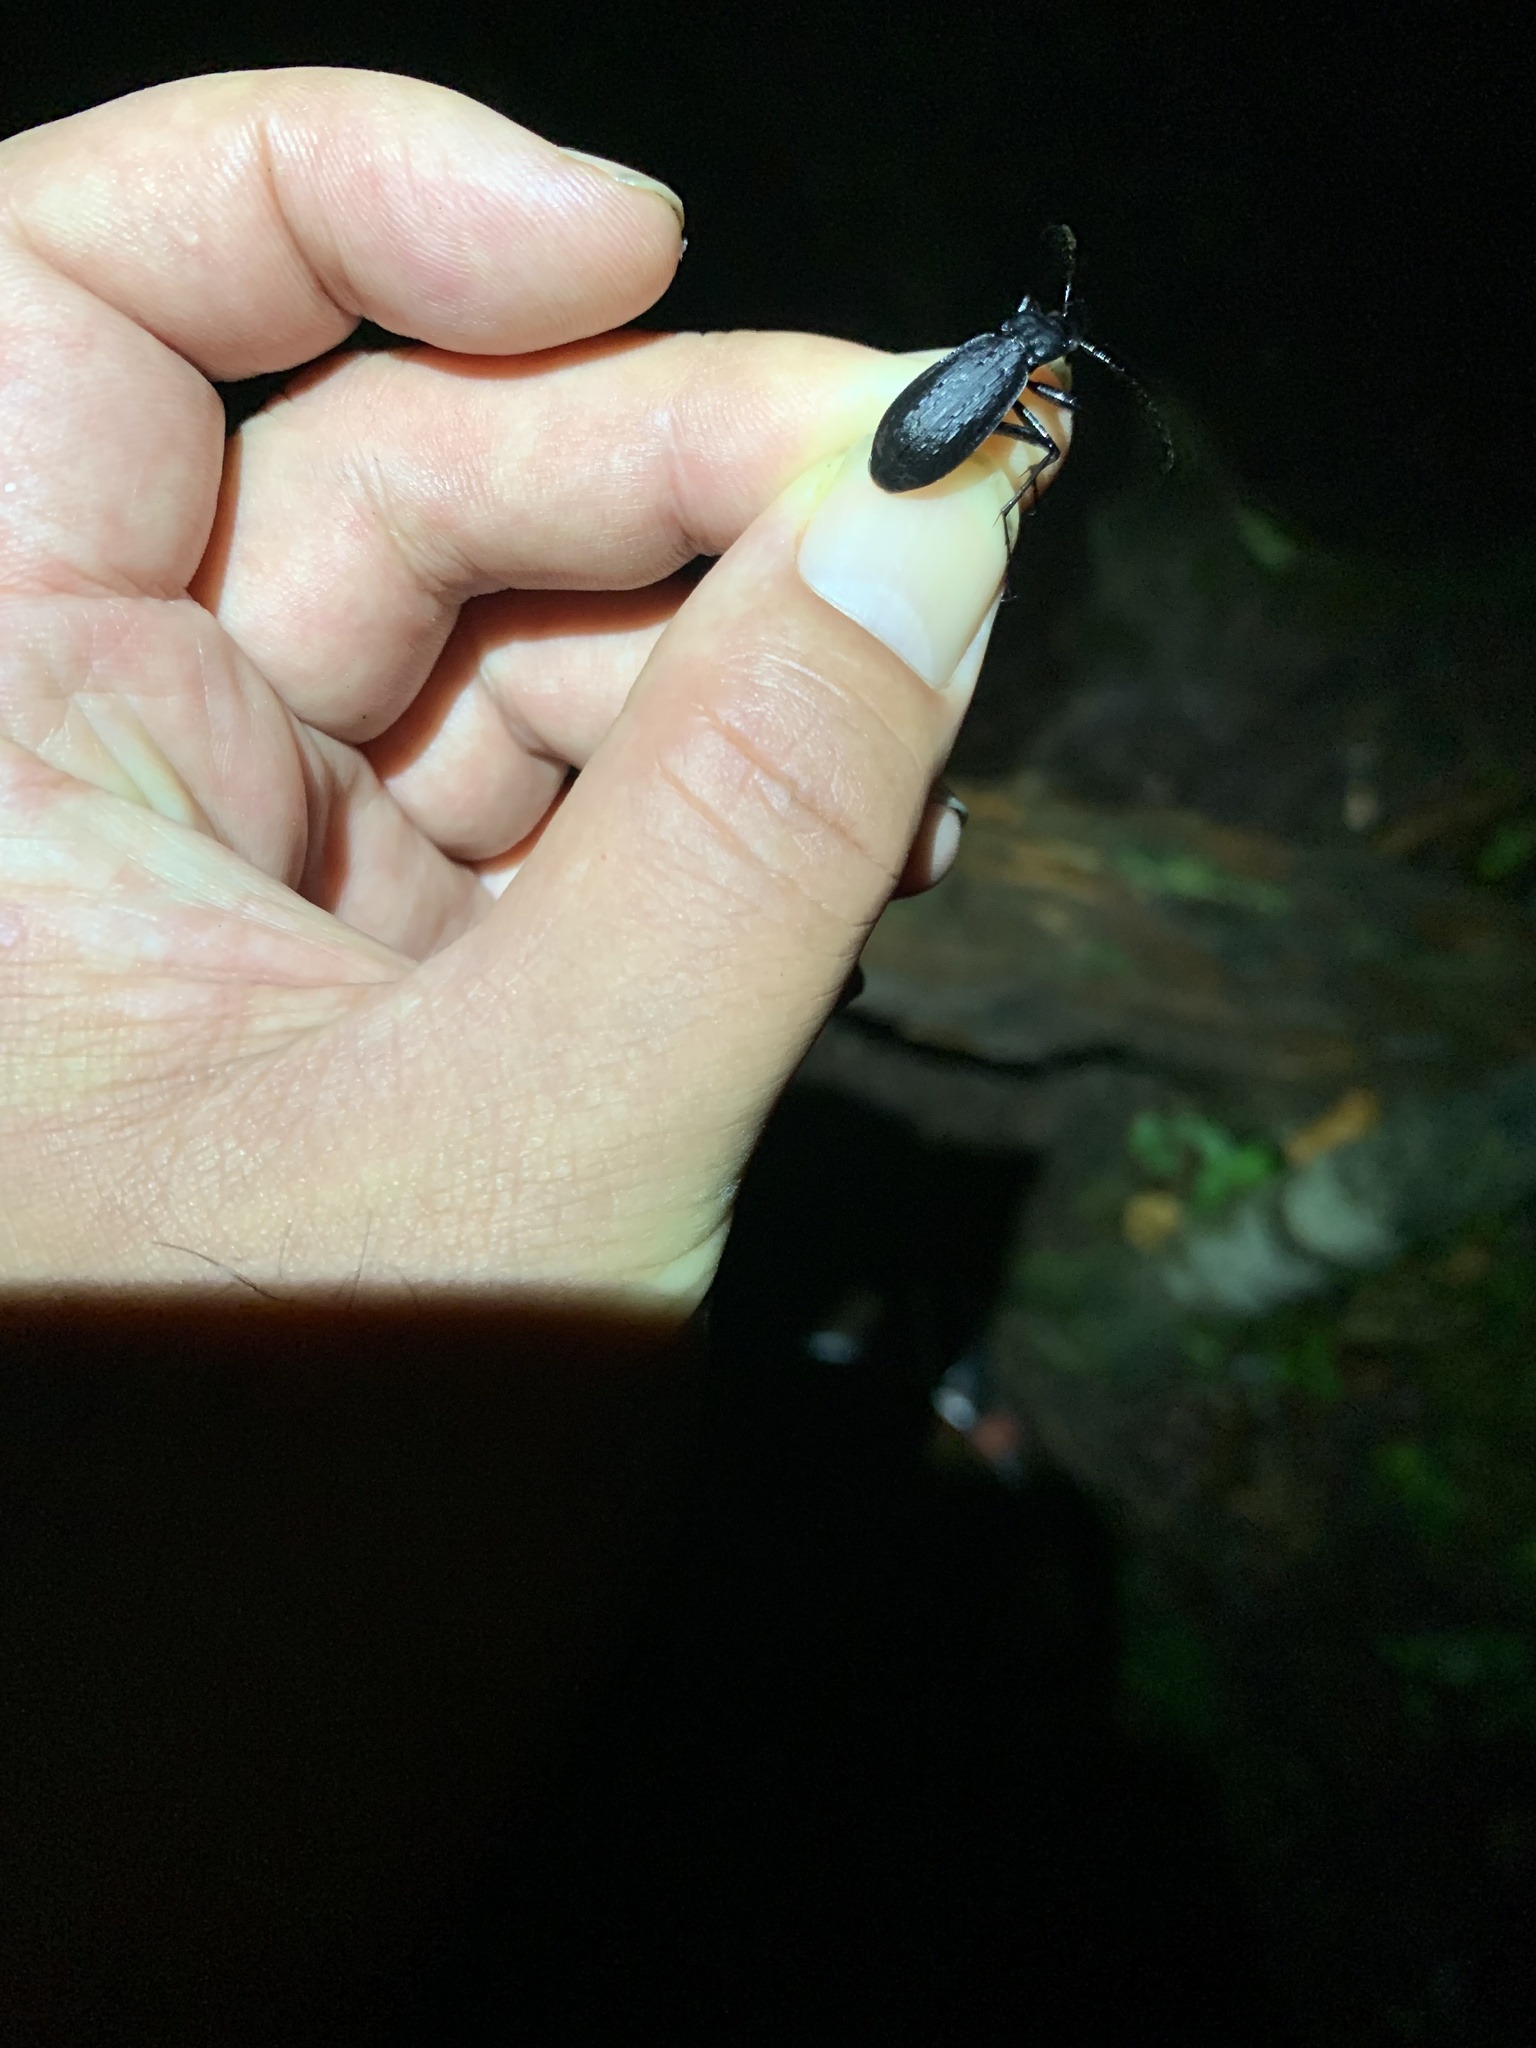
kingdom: Animalia
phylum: Arthropoda
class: Insecta
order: Coleoptera
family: Carabidae
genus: Carabus
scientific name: Carabus arboreus
